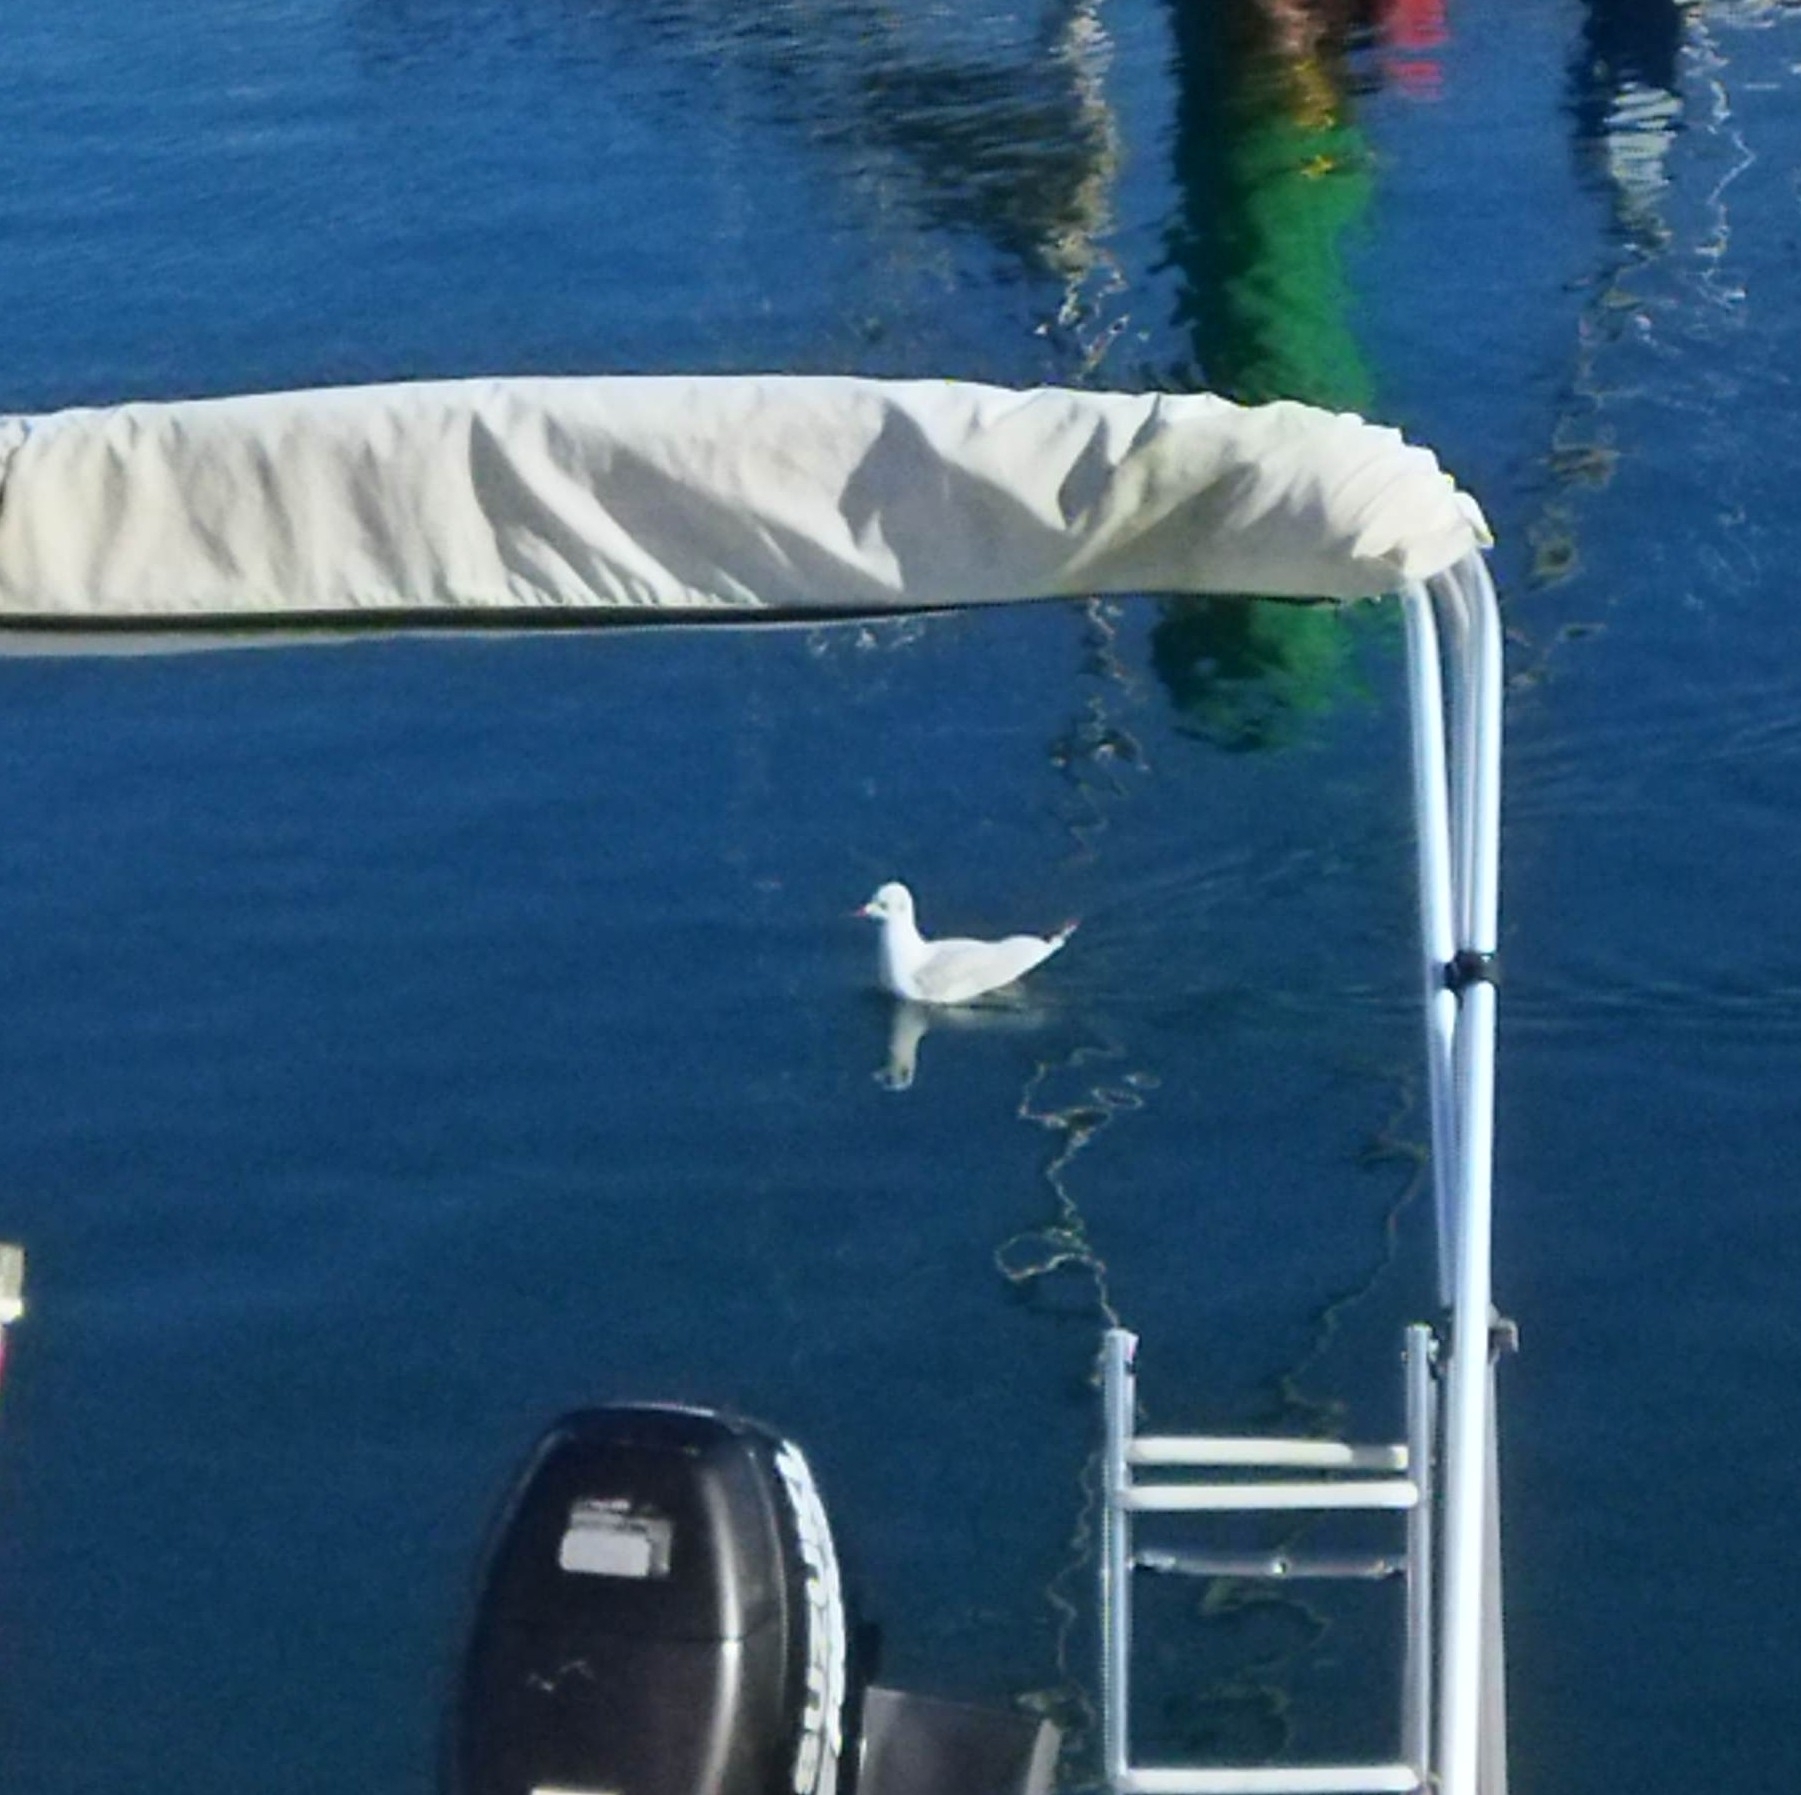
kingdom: Animalia
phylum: Chordata
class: Aves
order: Charadriiformes
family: Laridae
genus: Chroicocephalus
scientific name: Chroicocephalus ridibundus
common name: Black-headed gull
